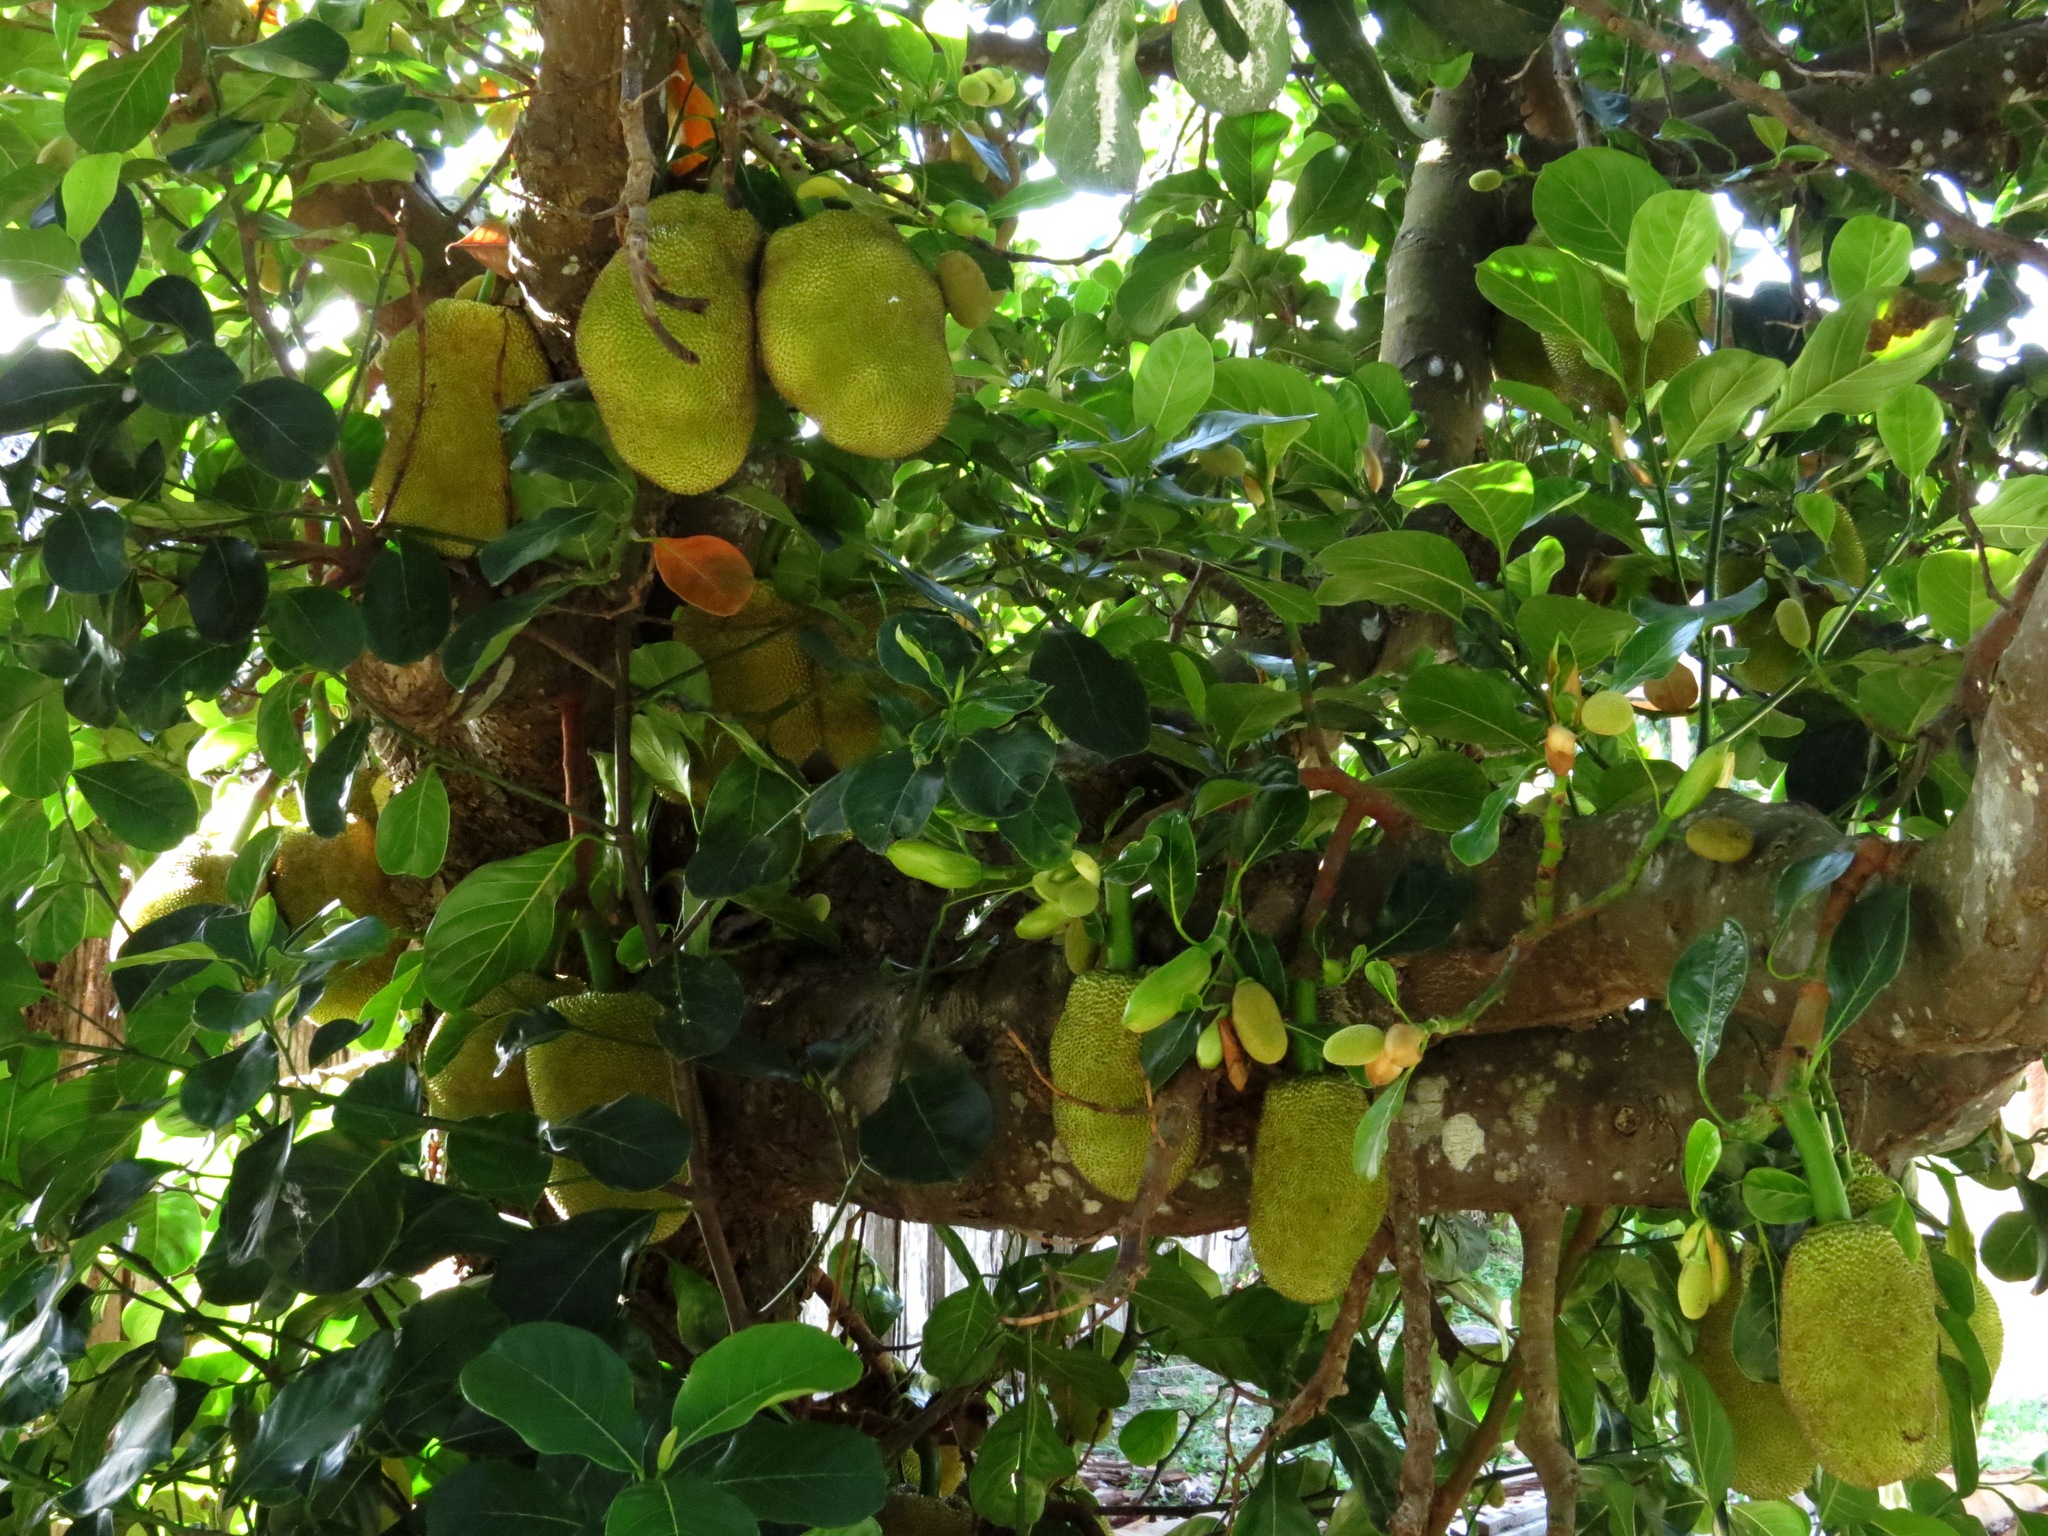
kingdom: Plantae
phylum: Tracheophyta
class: Magnoliopsida
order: Rosales
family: Moraceae
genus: Artocarpus
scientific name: Artocarpus heterophyllus
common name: Jackfruit
